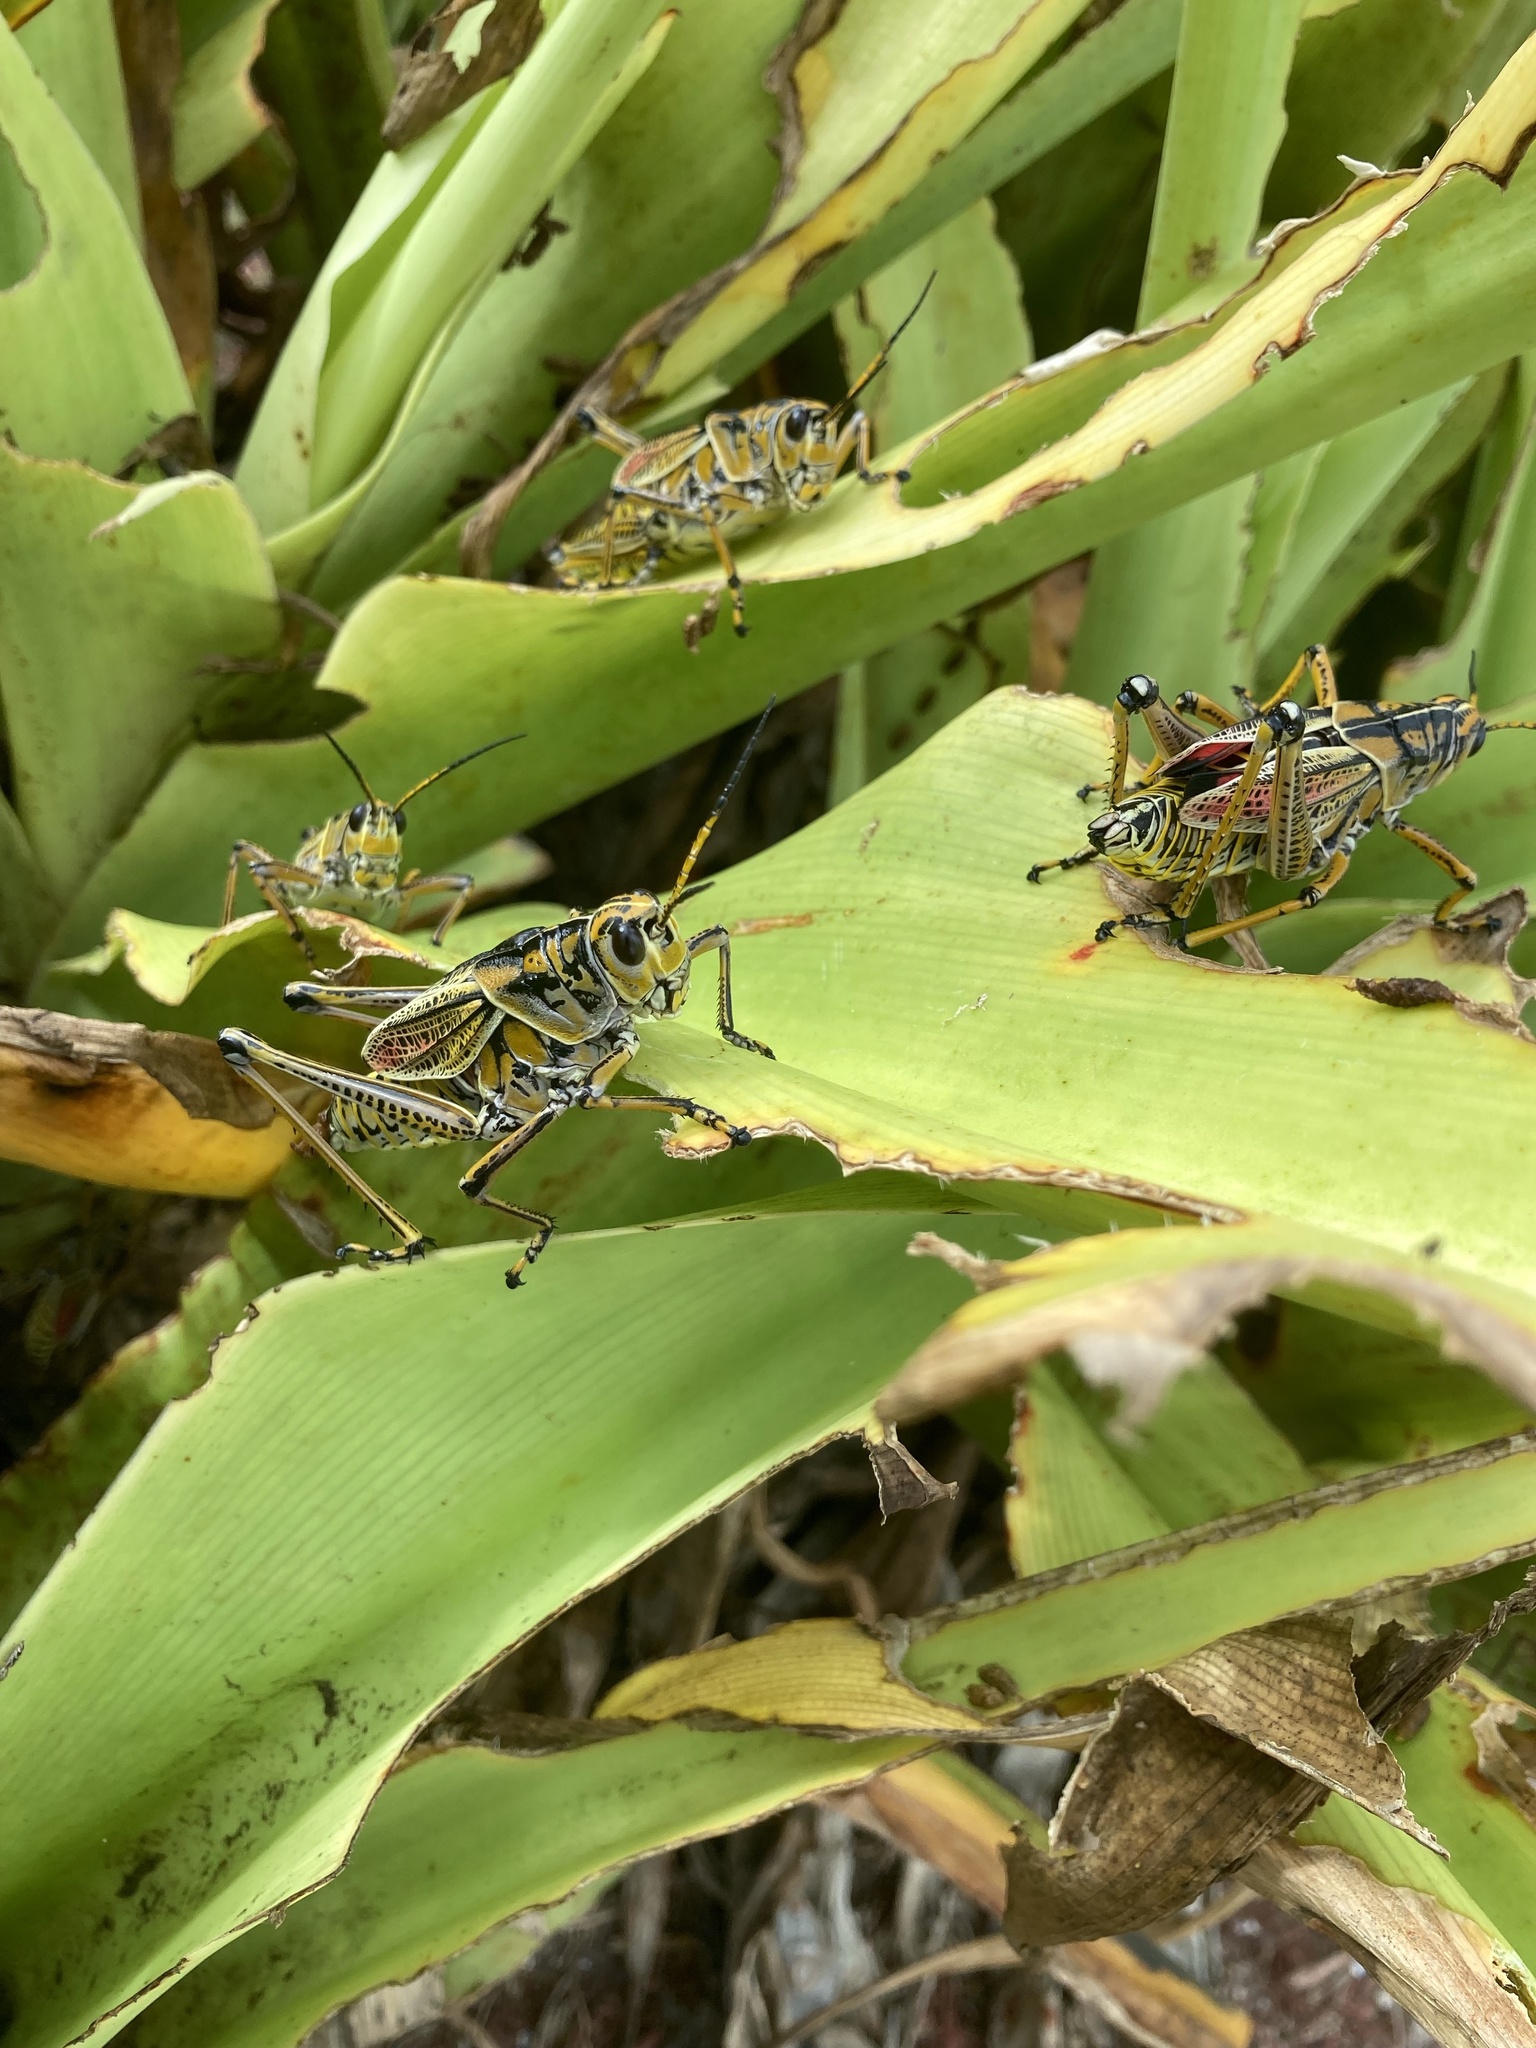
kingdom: Animalia
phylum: Arthropoda
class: Insecta
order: Orthoptera
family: Romaleidae
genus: Romalea
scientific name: Romalea microptera
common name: Eastern lubber grasshopper
